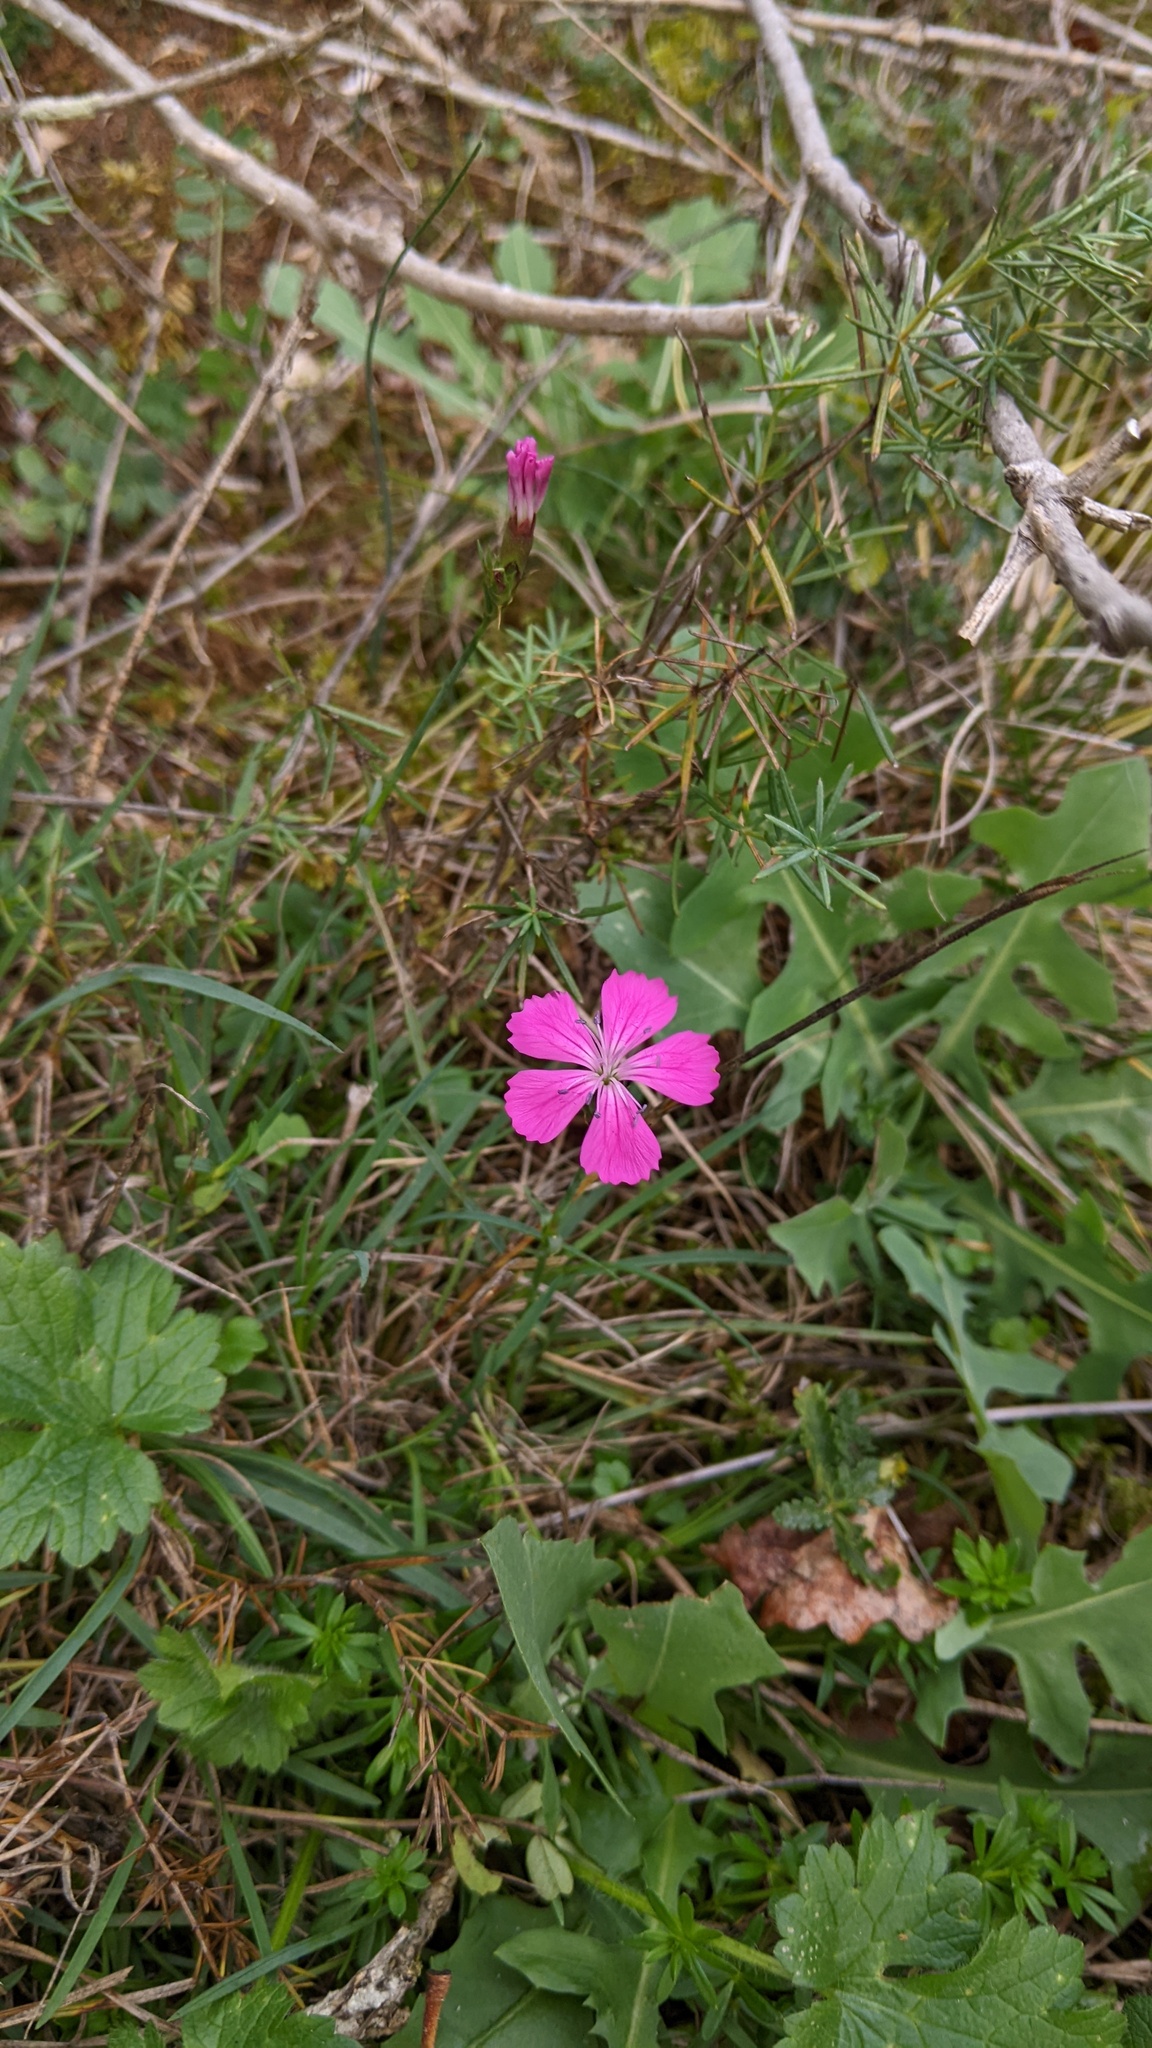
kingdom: Plantae
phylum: Tracheophyta
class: Magnoliopsida
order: Caryophyllales
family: Caryophyllaceae
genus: Dianthus
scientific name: Dianthus carthusianorum
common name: Carthusian pink
